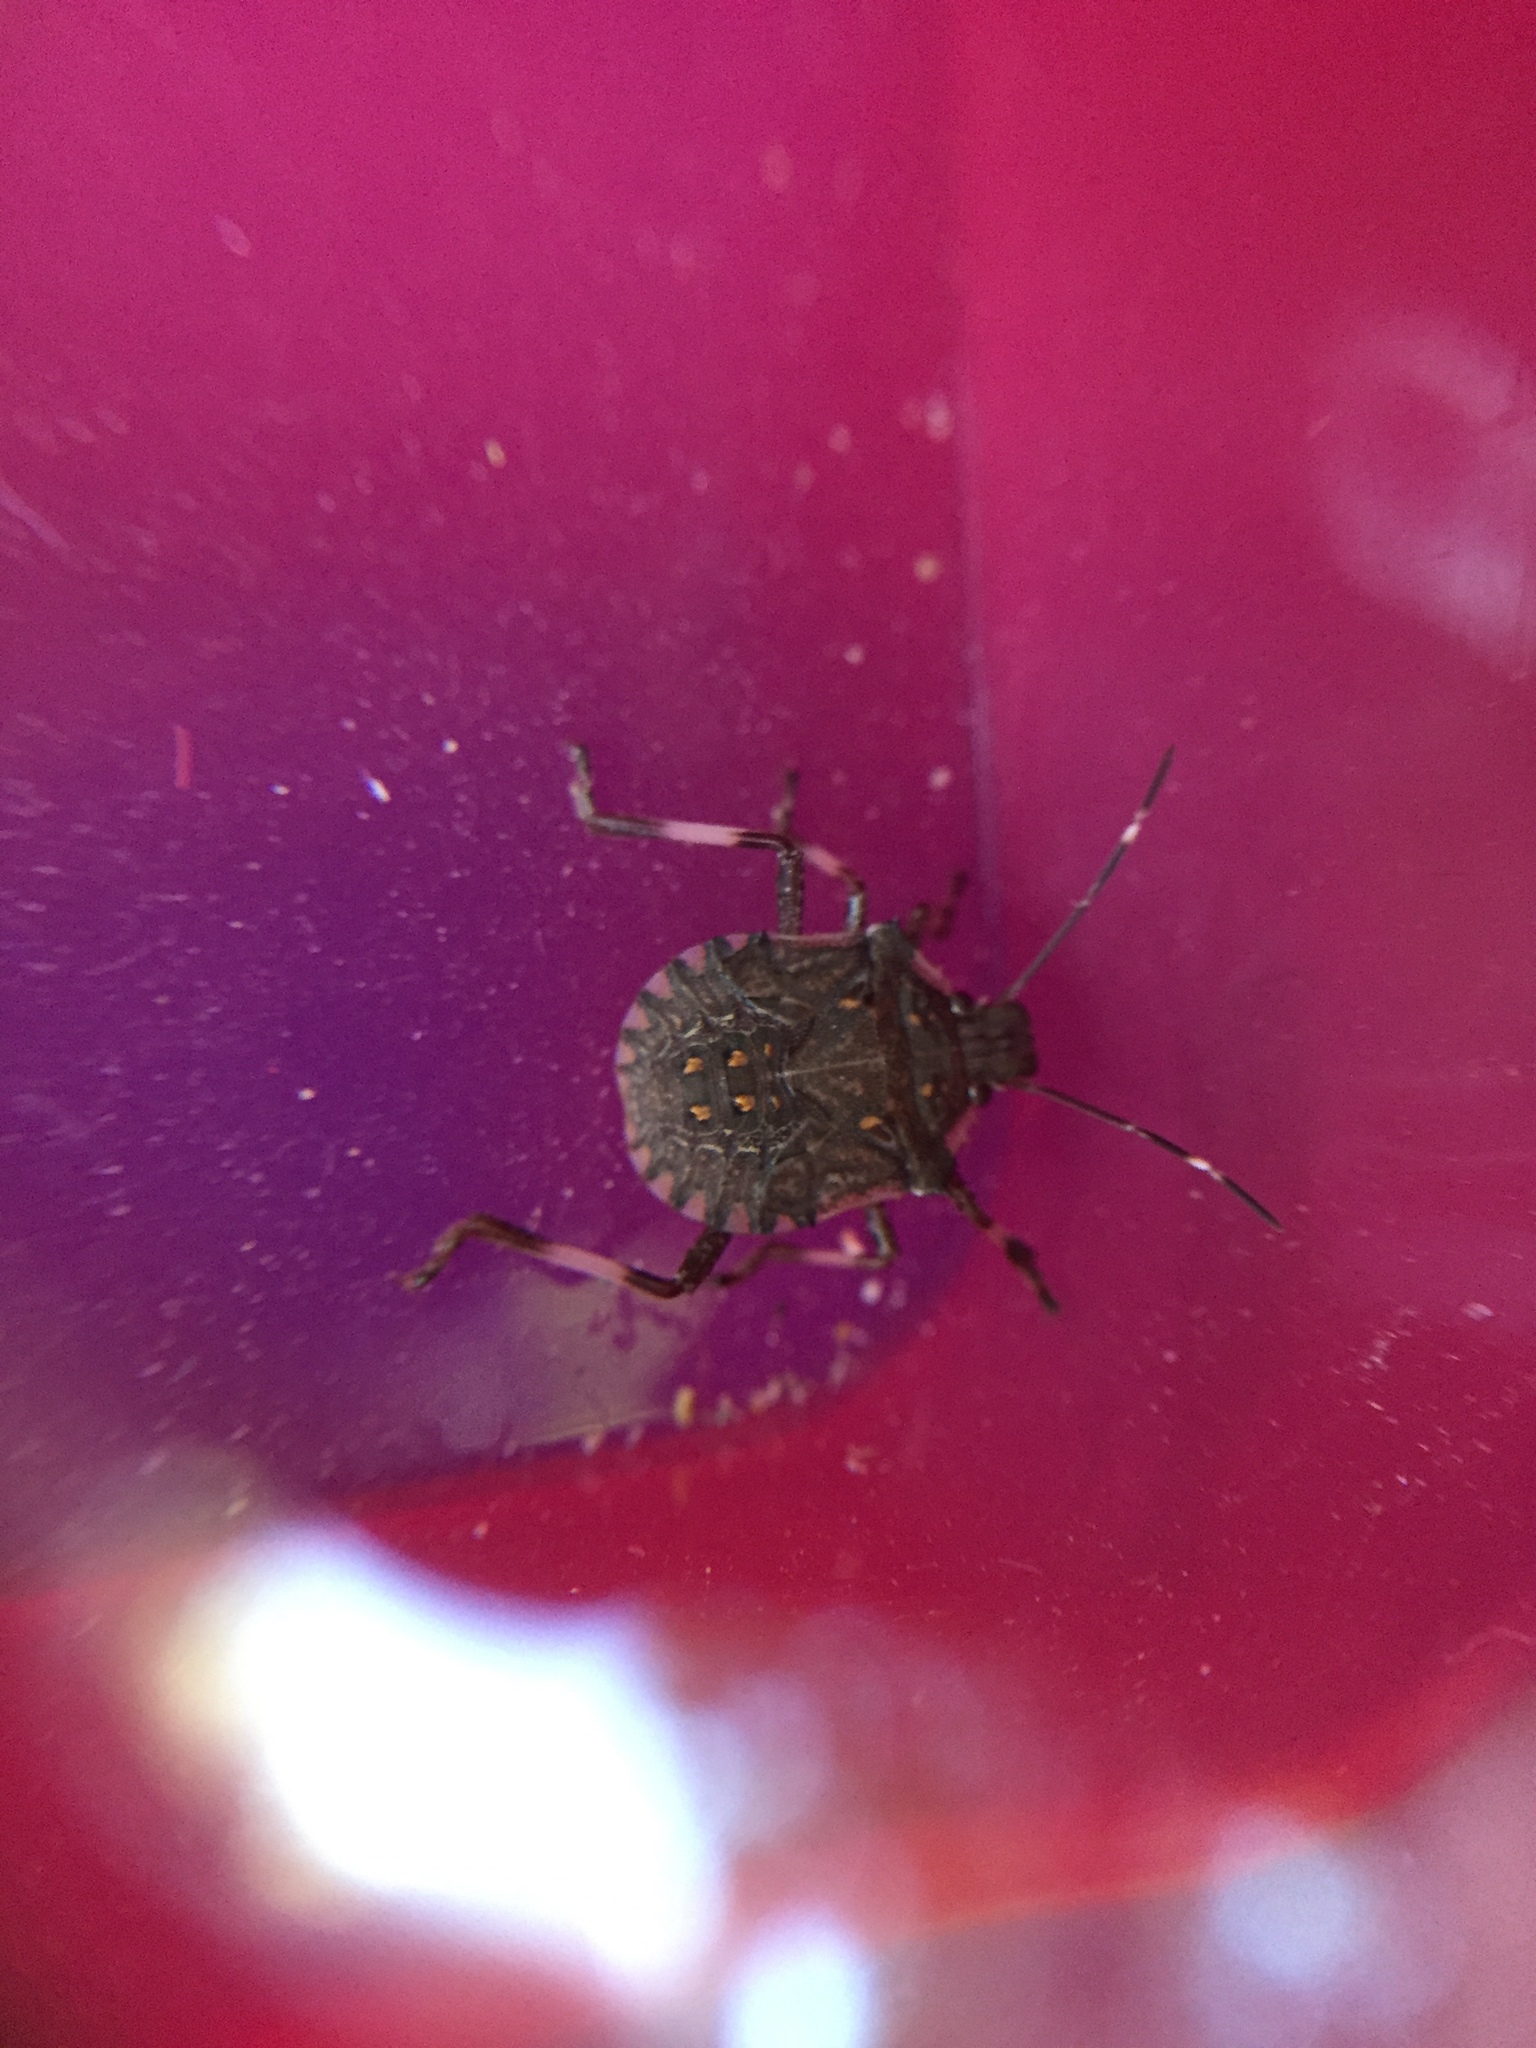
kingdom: Animalia
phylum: Arthropoda
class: Insecta
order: Hemiptera
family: Pentatomidae
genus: Halyomorpha
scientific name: Halyomorpha halys
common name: Brown marmorated stink bug
